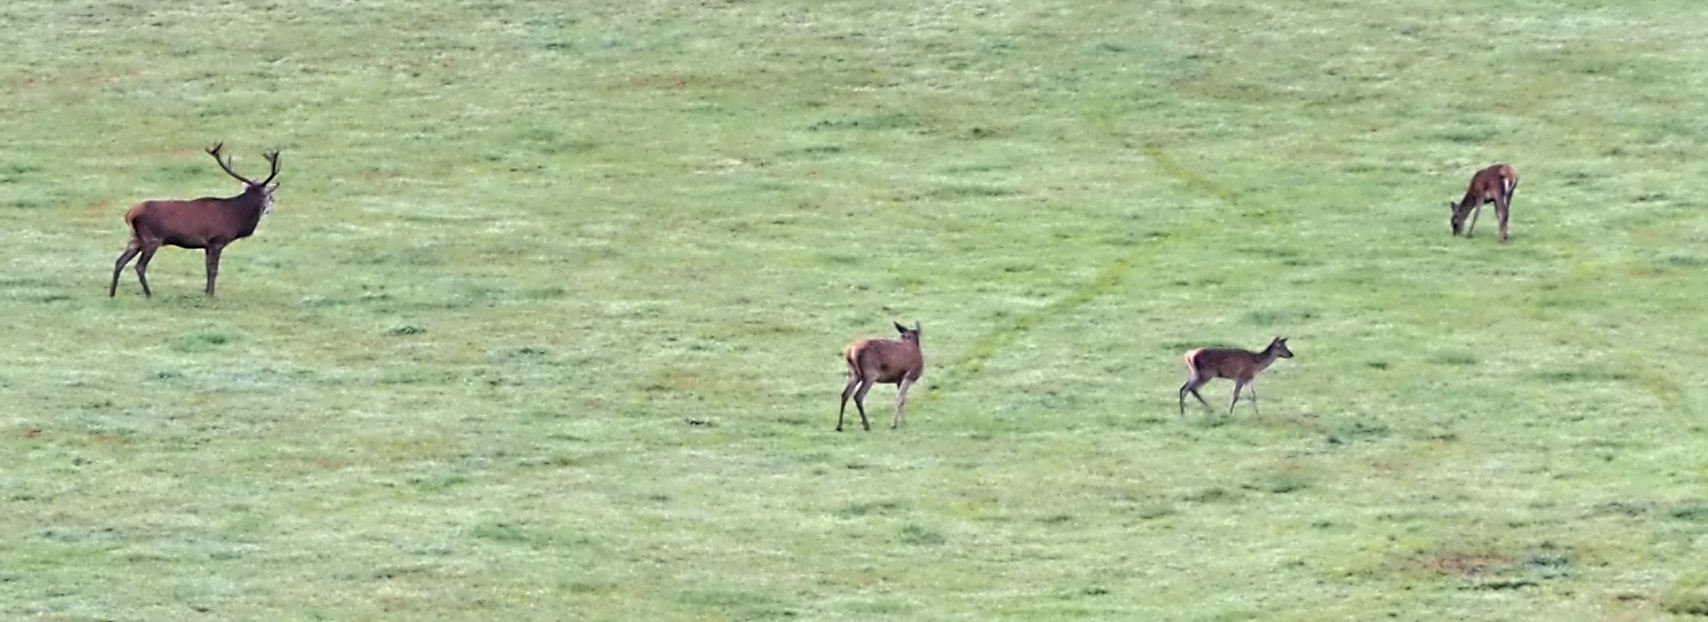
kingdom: Animalia
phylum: Chordata
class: Mammalia
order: Artiodactyla
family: Cervidae
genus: Cervus
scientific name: Cervus elaphus
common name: Red deer
